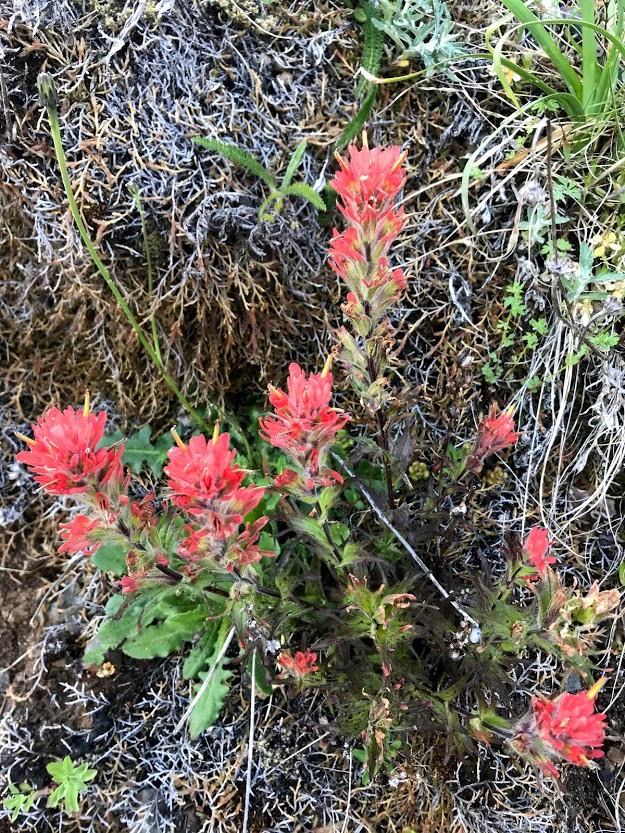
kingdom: Plantae
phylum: Tracheophyta
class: Magnoliopsida
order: Lamiales
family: Orobanchaceae
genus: Castilleja
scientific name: Castilleja hispida
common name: Bristly paintbrush
